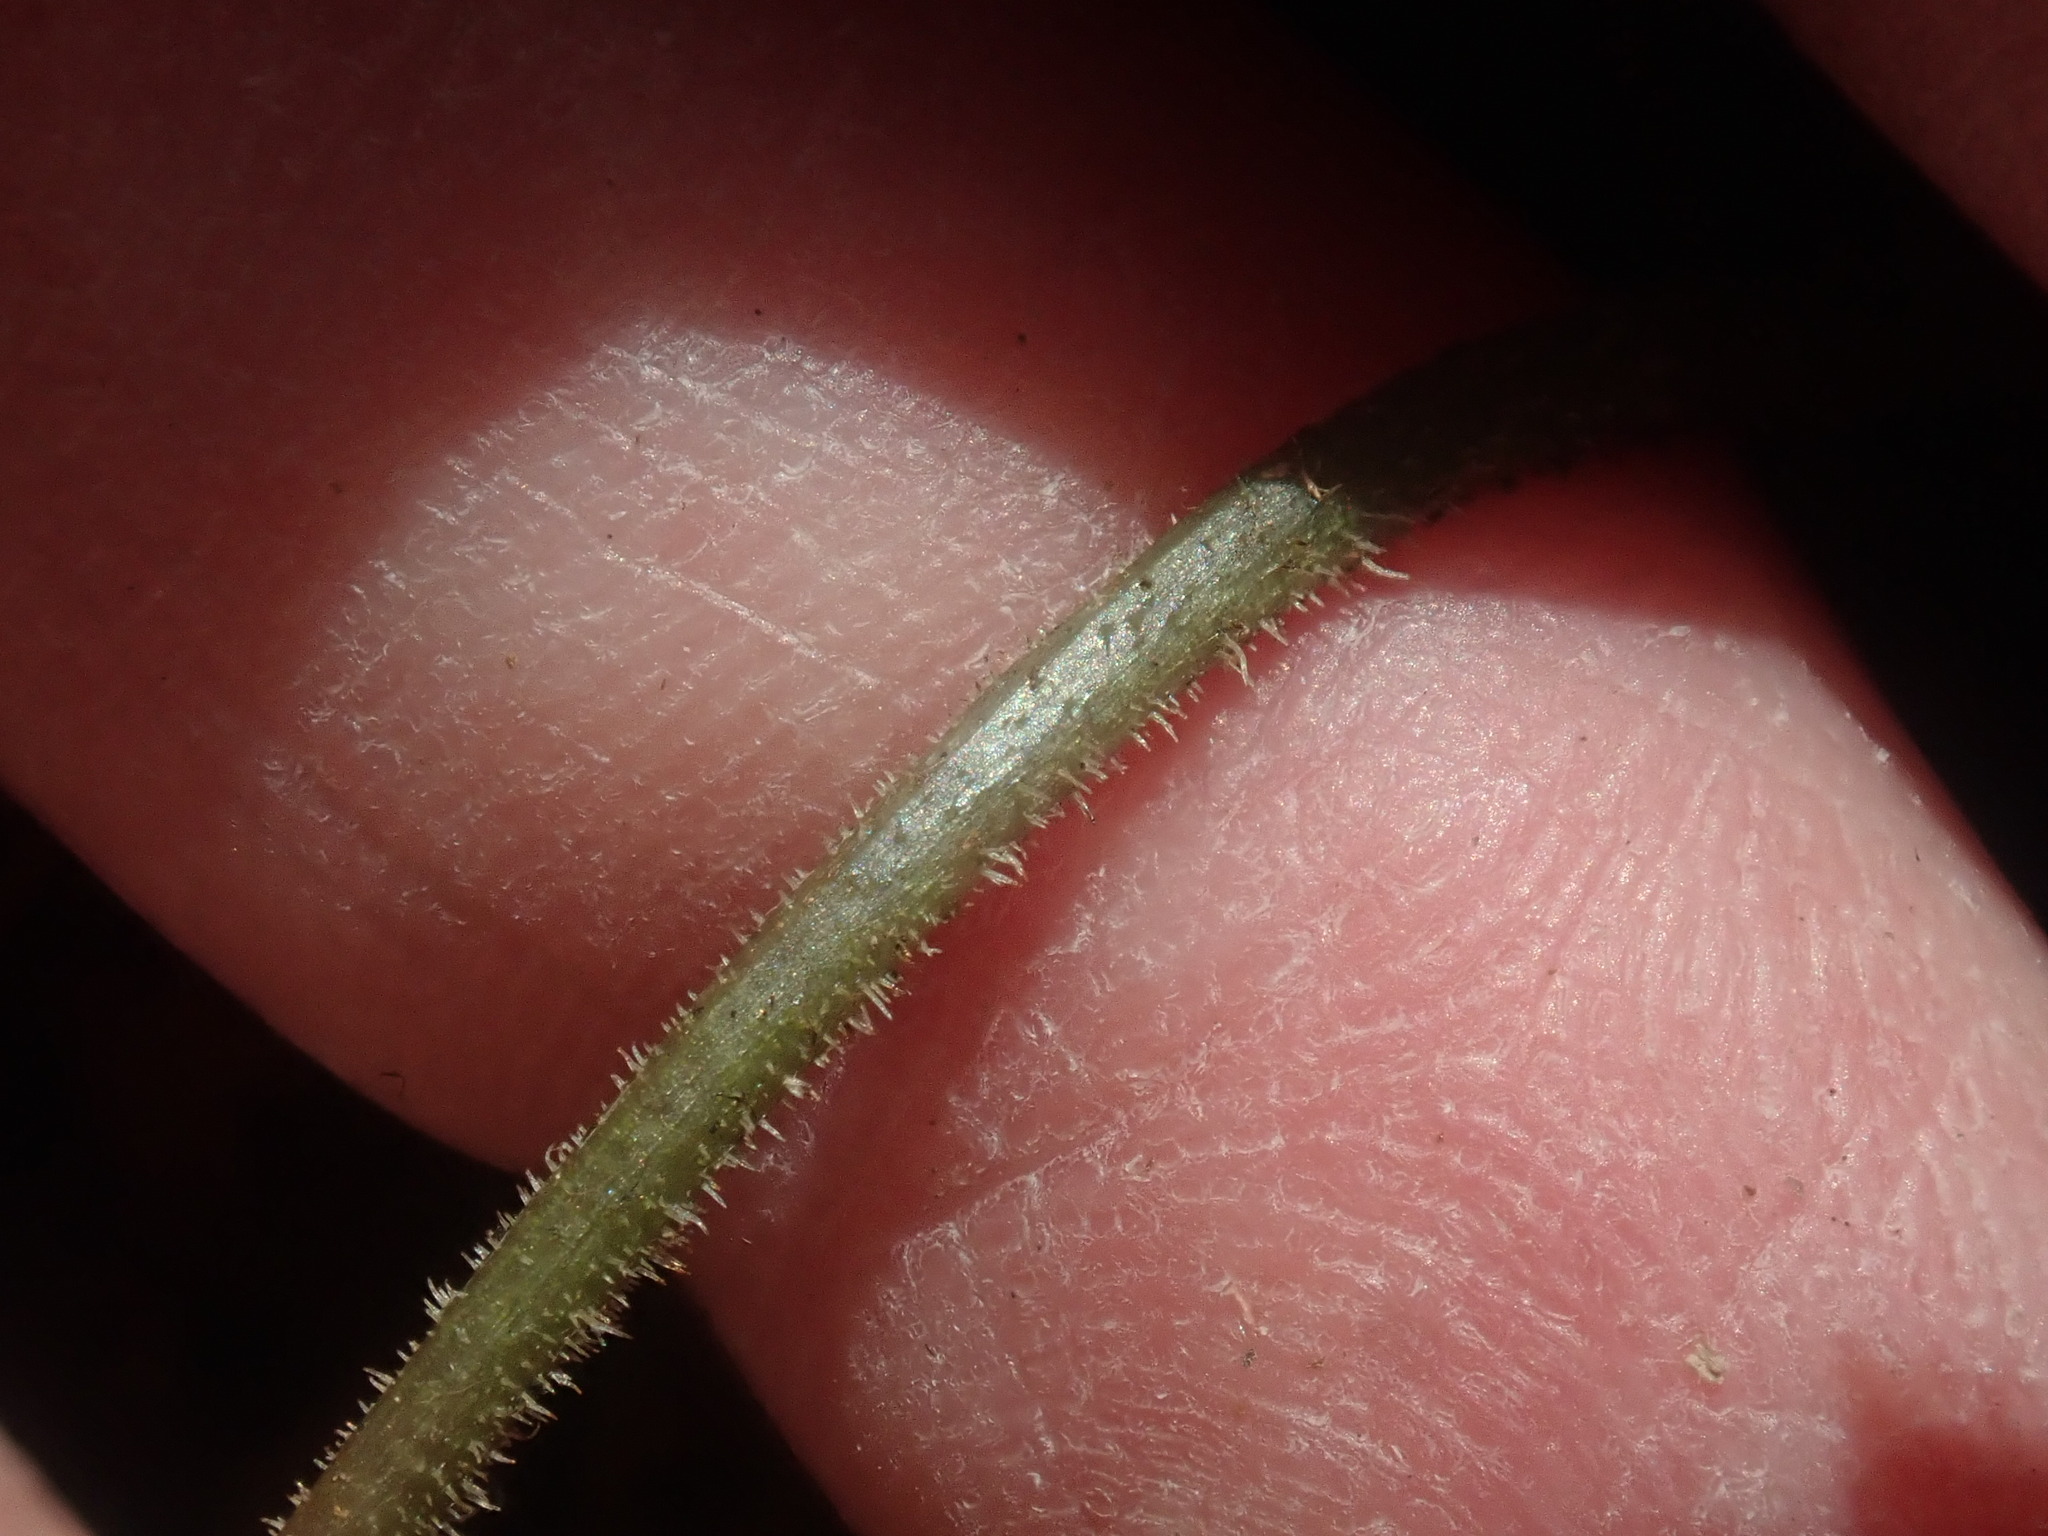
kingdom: Plantae
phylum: Tracheophyta
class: Magnoliopsida
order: Saxifragales
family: Saxifragaceae
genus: Tiarella
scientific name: Tiarella stolonifera
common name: Stoloniferous foamflower
